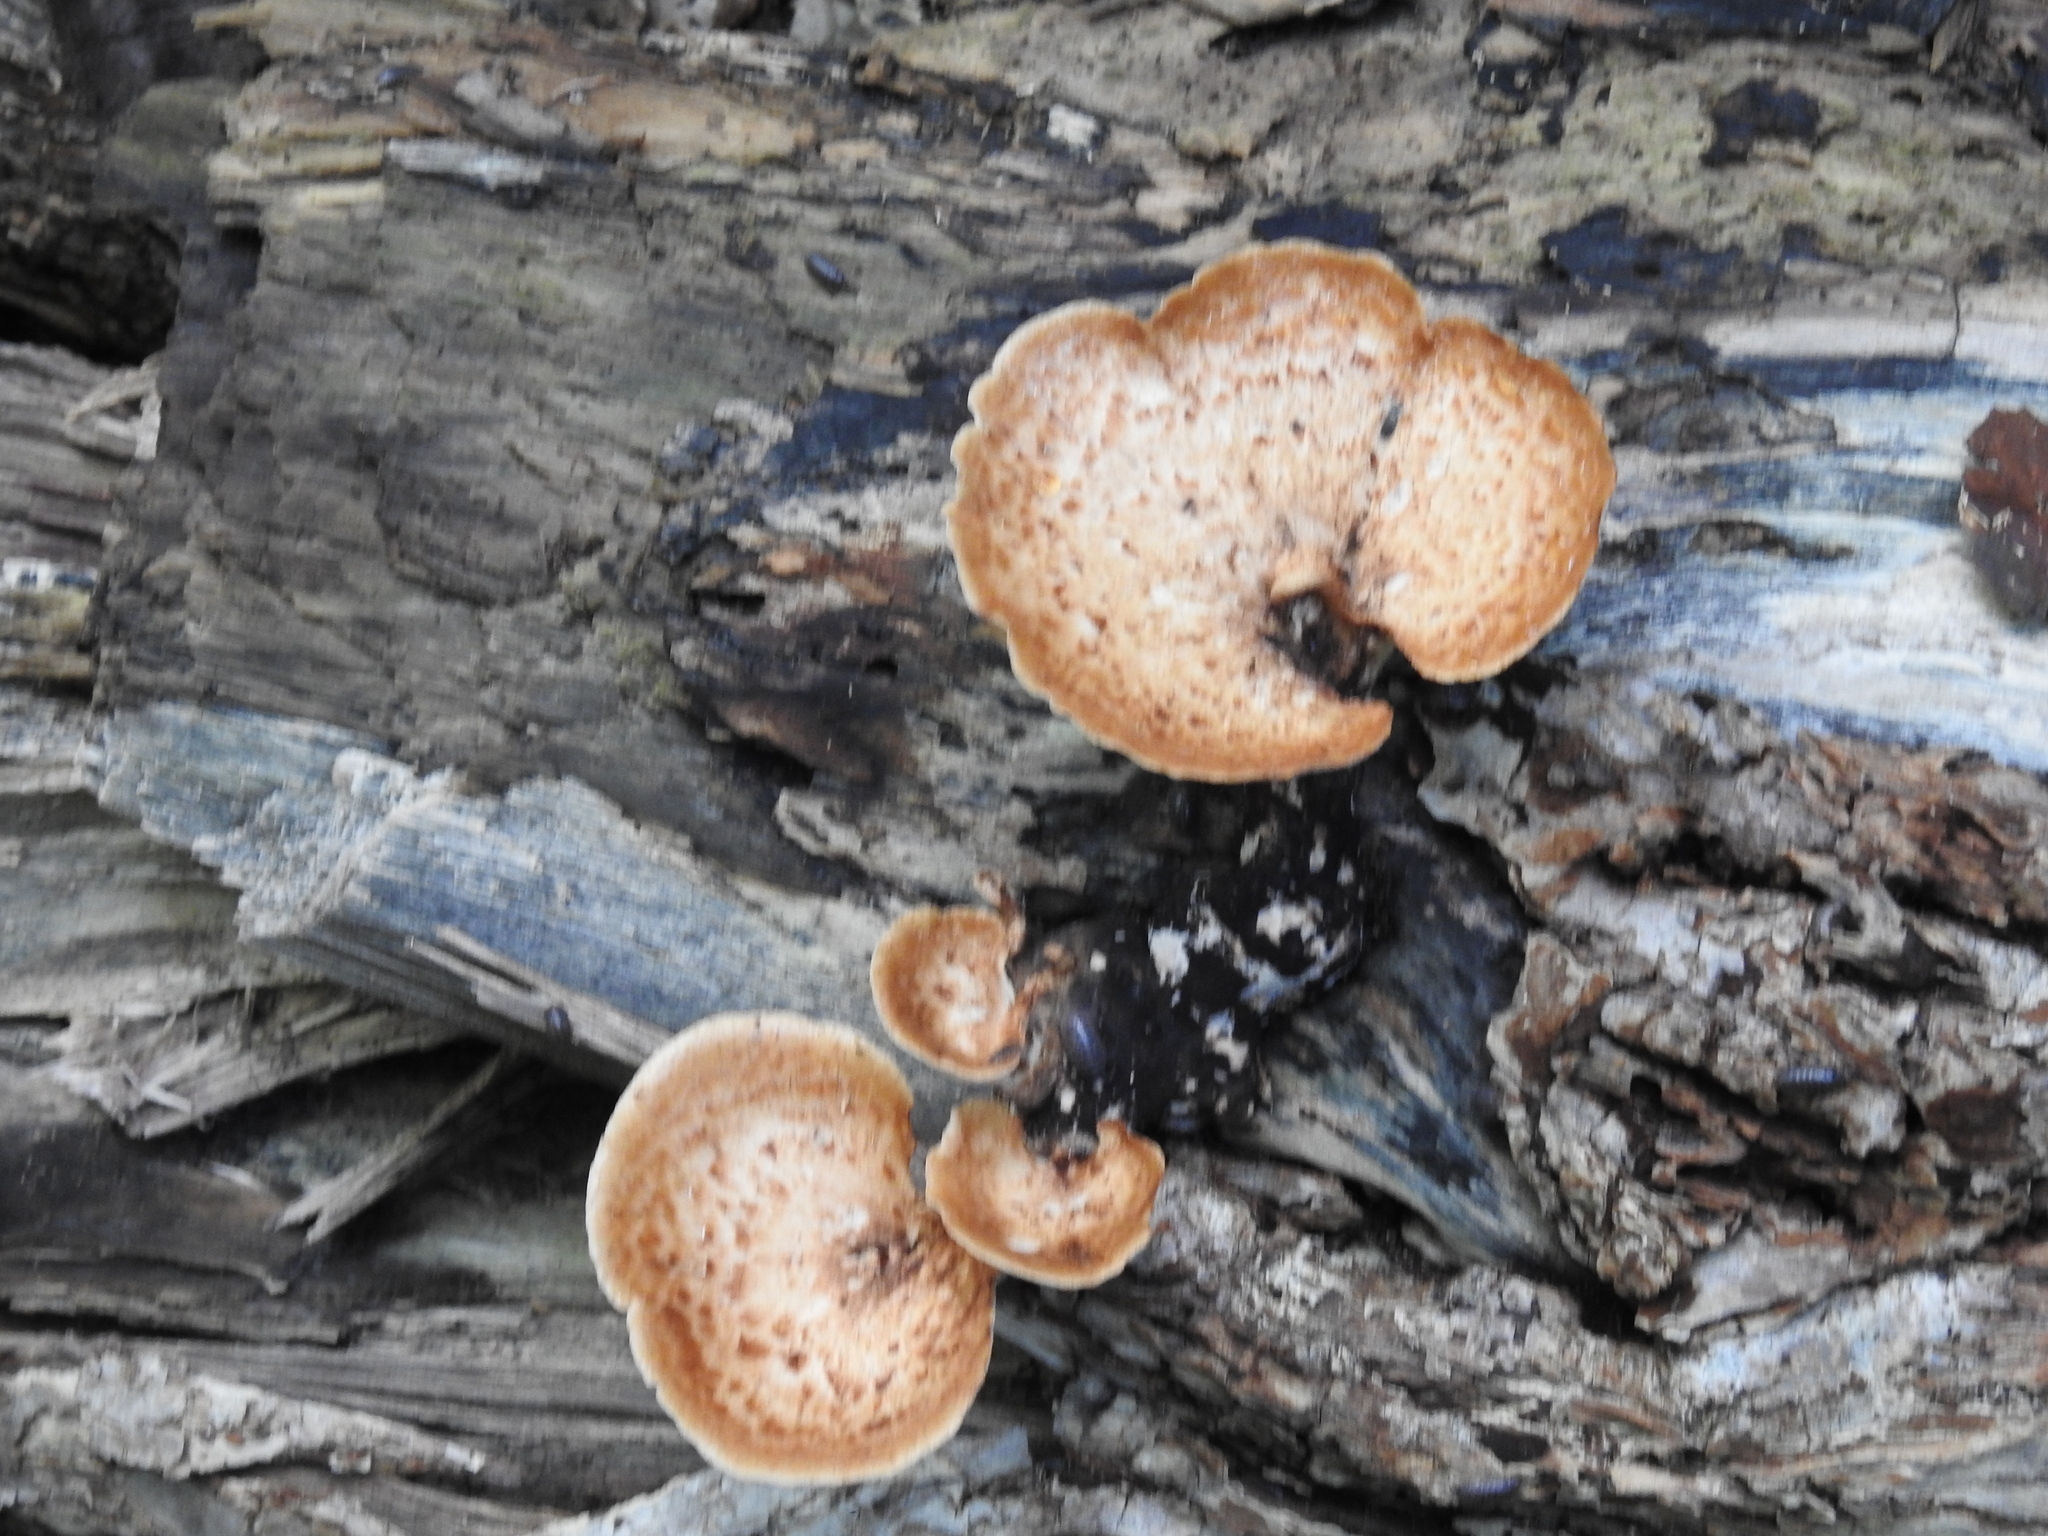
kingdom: Fungi
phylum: Basidiomycota
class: Agaricomycetes
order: Polyporales
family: Polyporaceae
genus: Cerioporus
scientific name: Cerioporus squamosus
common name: Dryad's saddle
